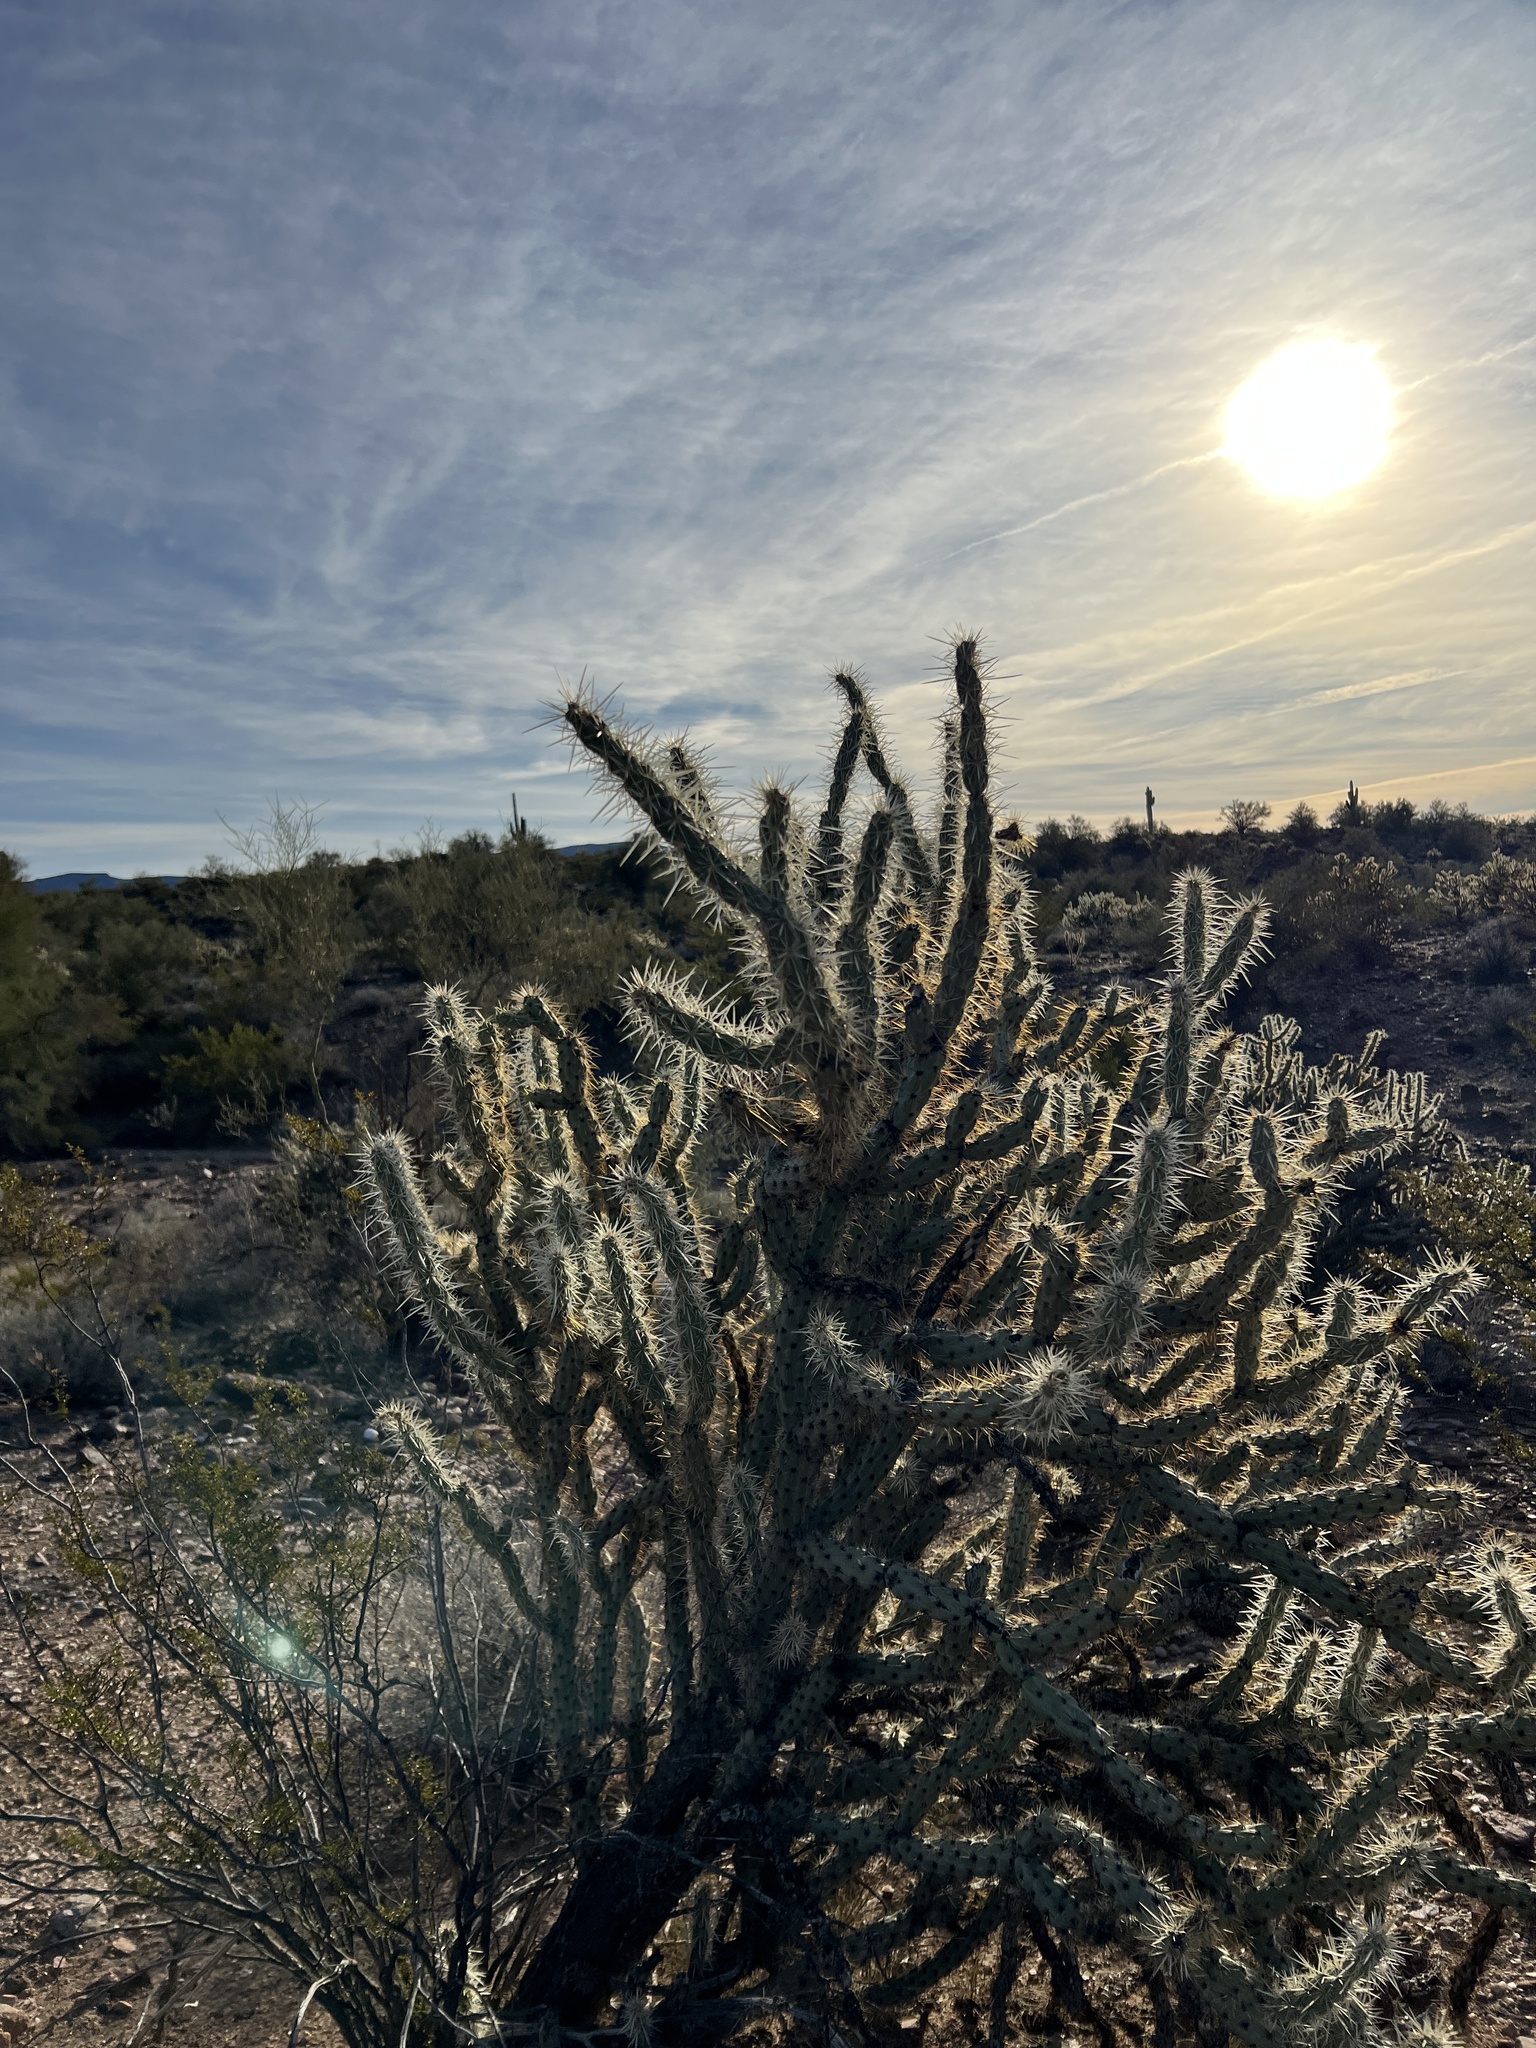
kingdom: Plantae
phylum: Tracheophyta
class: Magnoliopsida
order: Caryophyllales
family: Cactaceae
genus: Cylindropuntia
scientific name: Cylindropuntia acanthocarpa
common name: Buckhorn cholla
